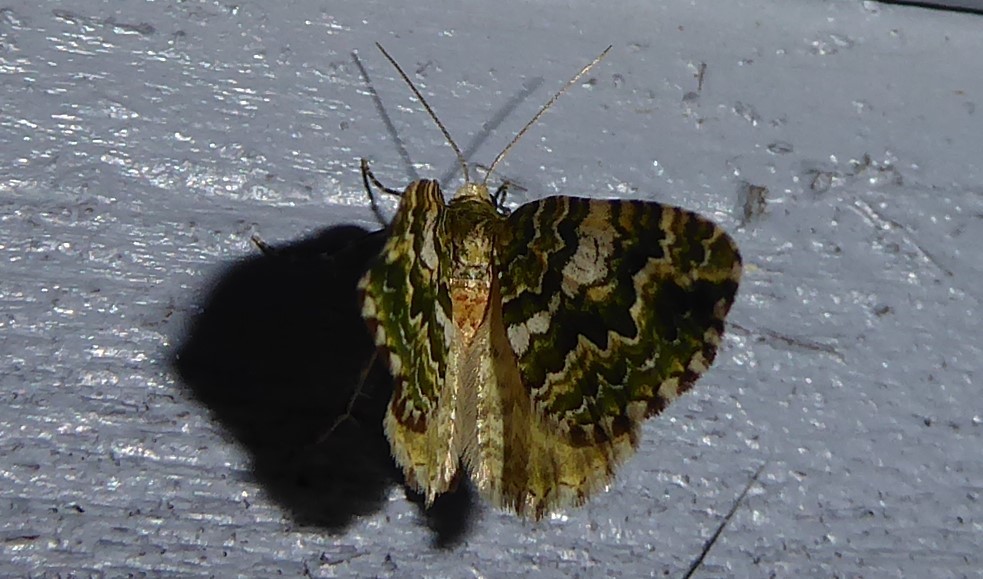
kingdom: Animalia
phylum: Arthropoda
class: Insecta
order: Lepidoptera
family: Geometridae
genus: Asaphodes
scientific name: Asaphodes beata
